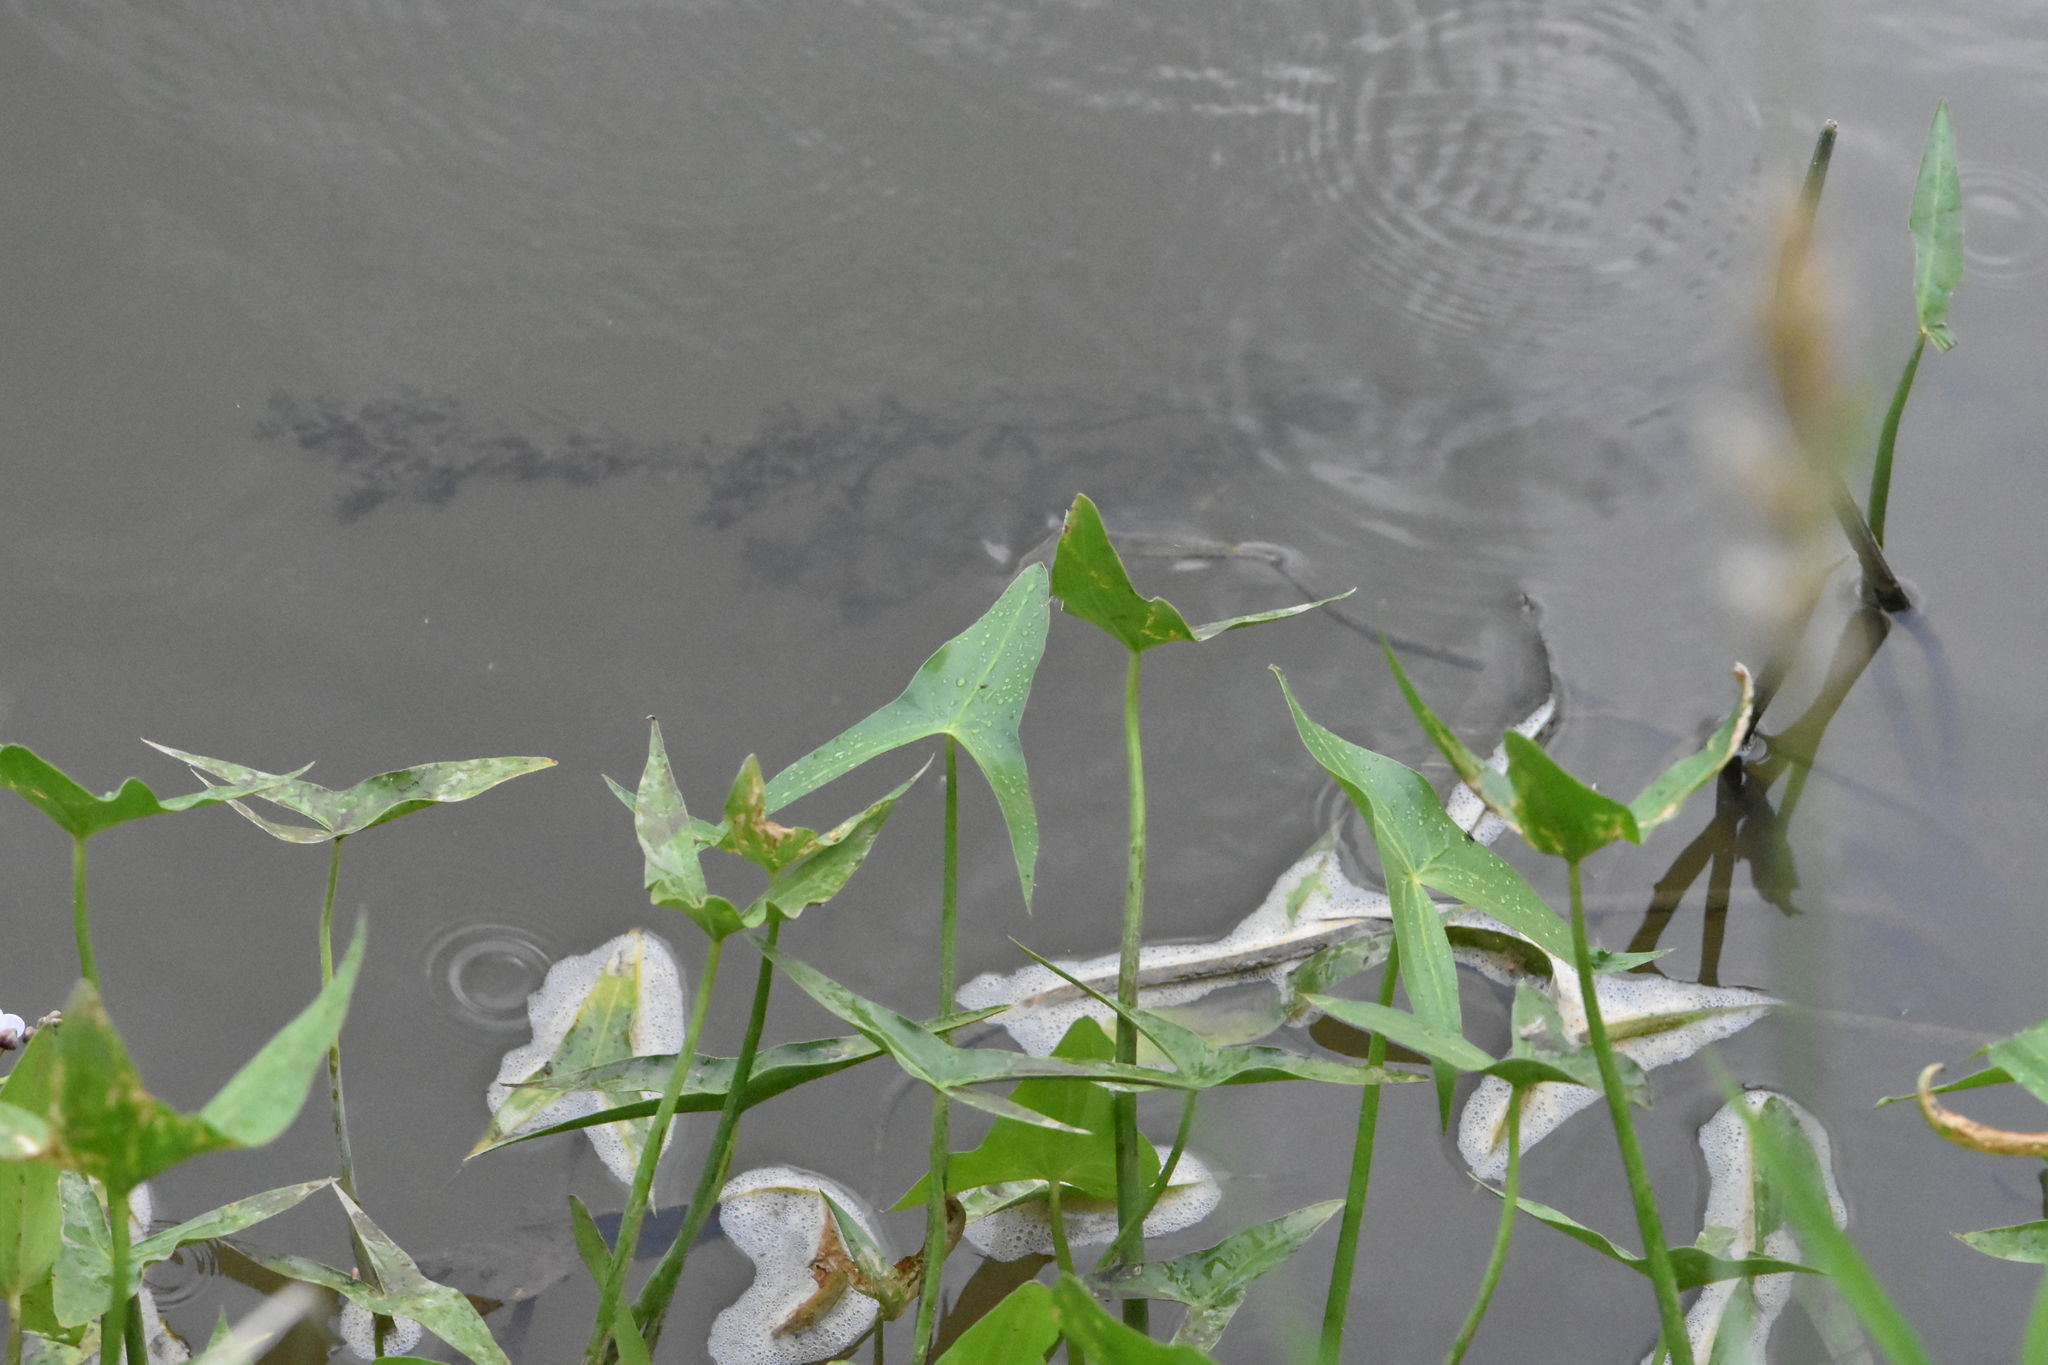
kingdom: Plantae
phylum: Tracheophyta
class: Liliopsida
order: Alismatales
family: Alismataceae
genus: Sagittaria
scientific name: Sagittaria sagittifolia
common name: Arrowhead
